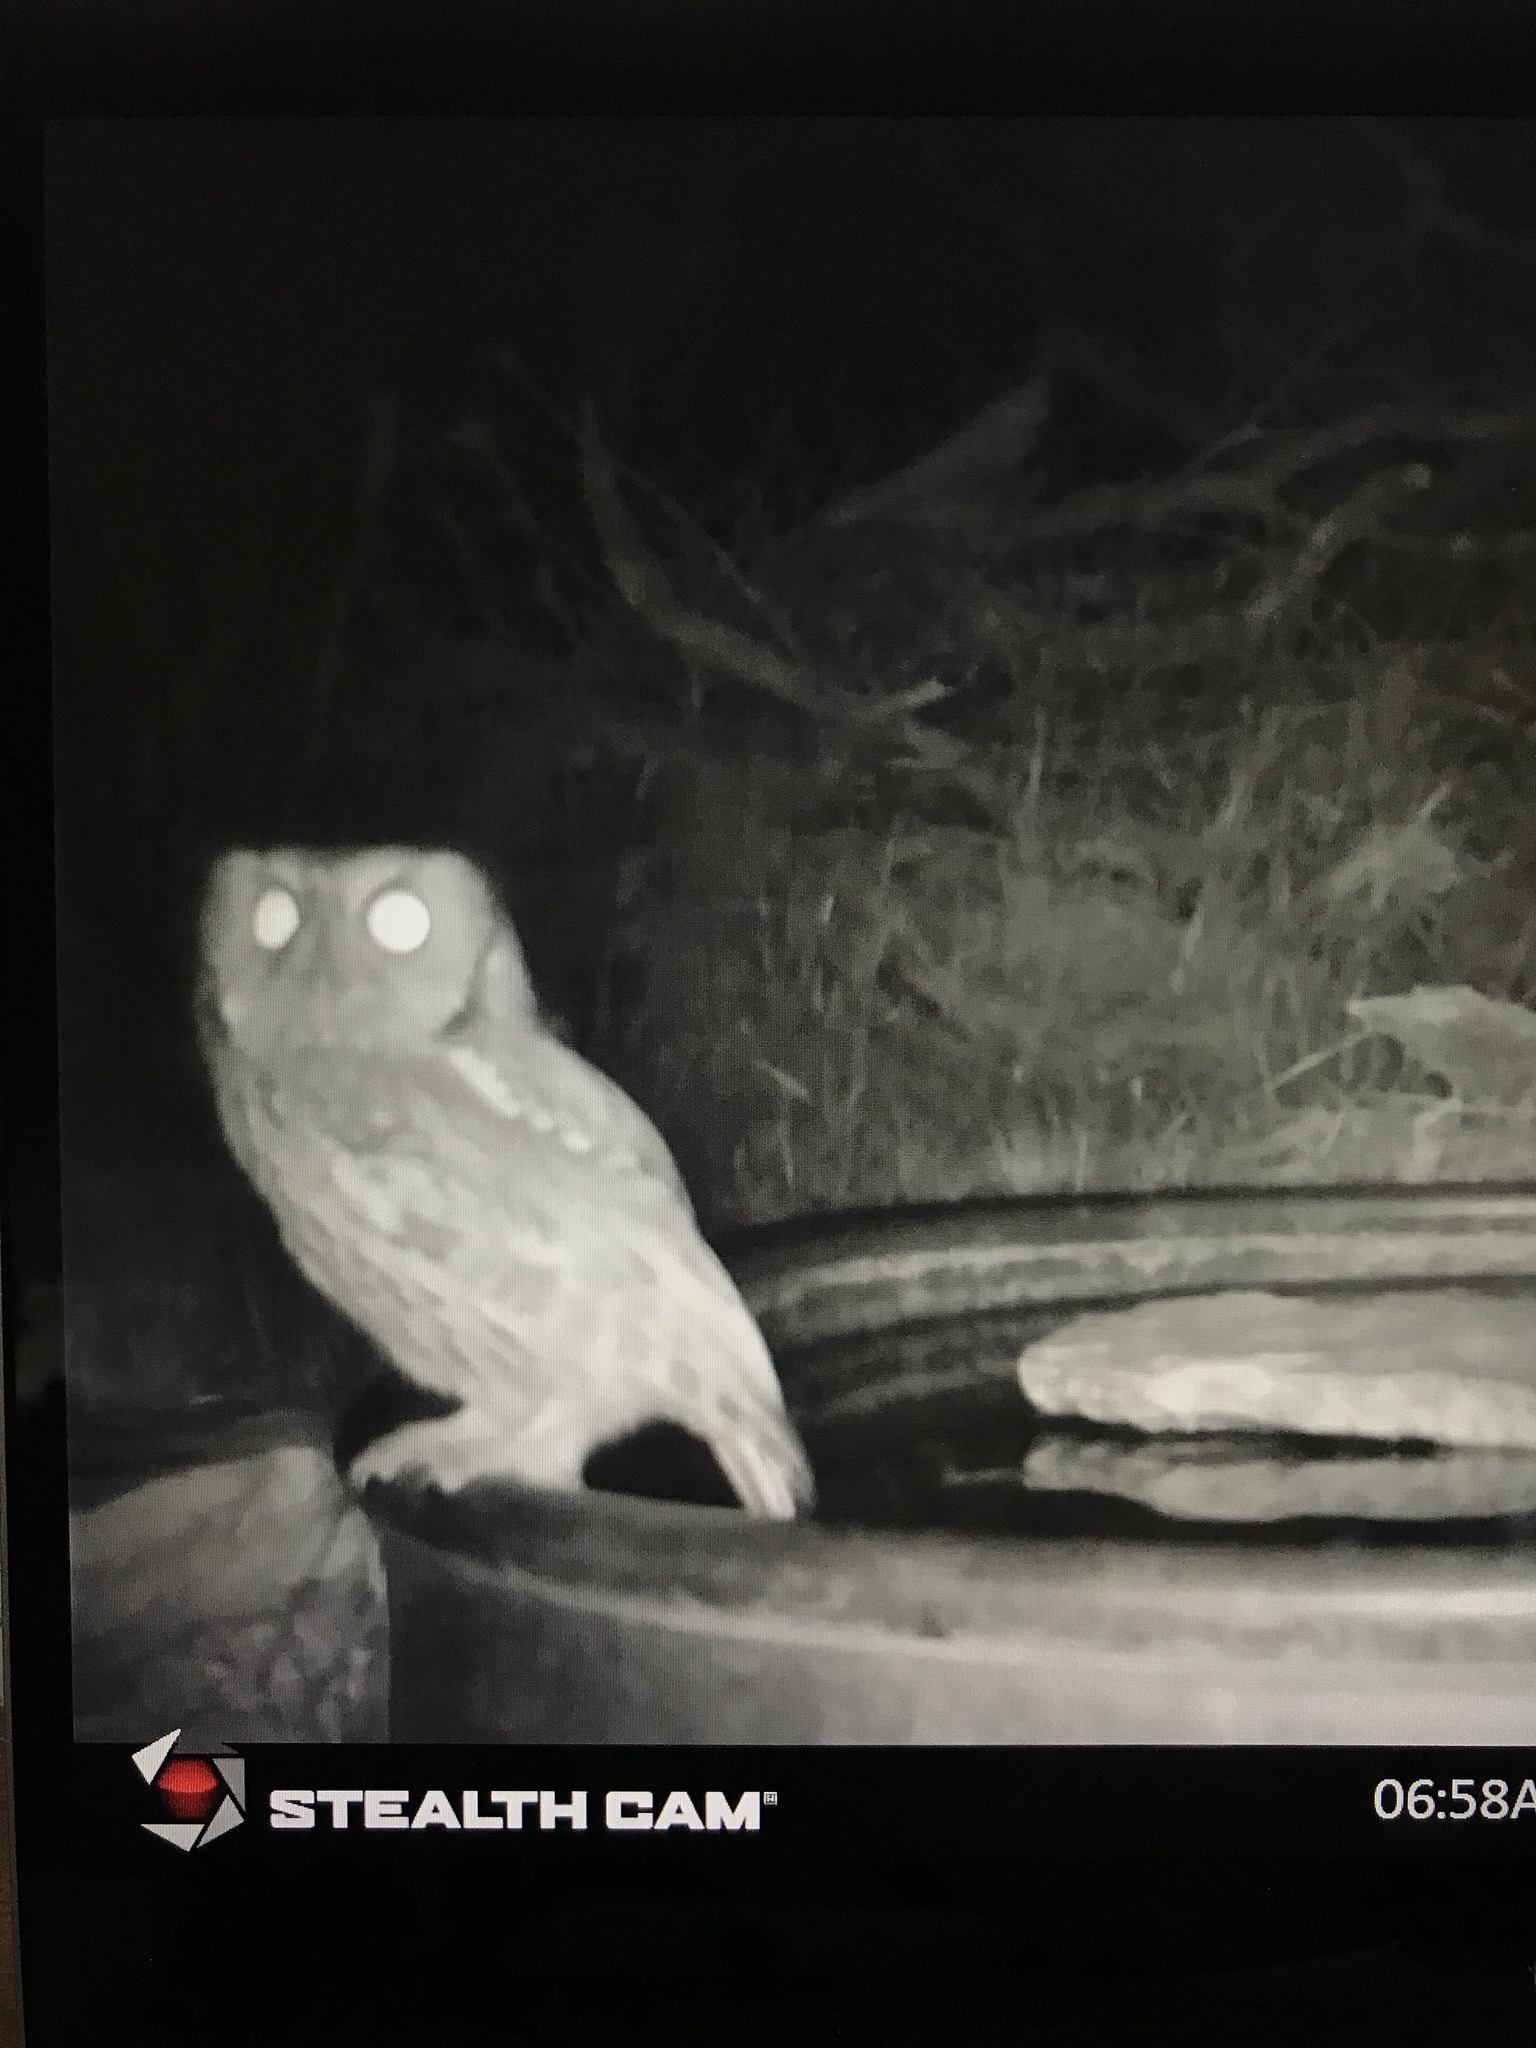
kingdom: Animalia
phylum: Chordata
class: Aves
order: Strigiformes
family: Strigidae
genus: Megascops
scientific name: Megascops asio
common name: Eastern screech-owl
